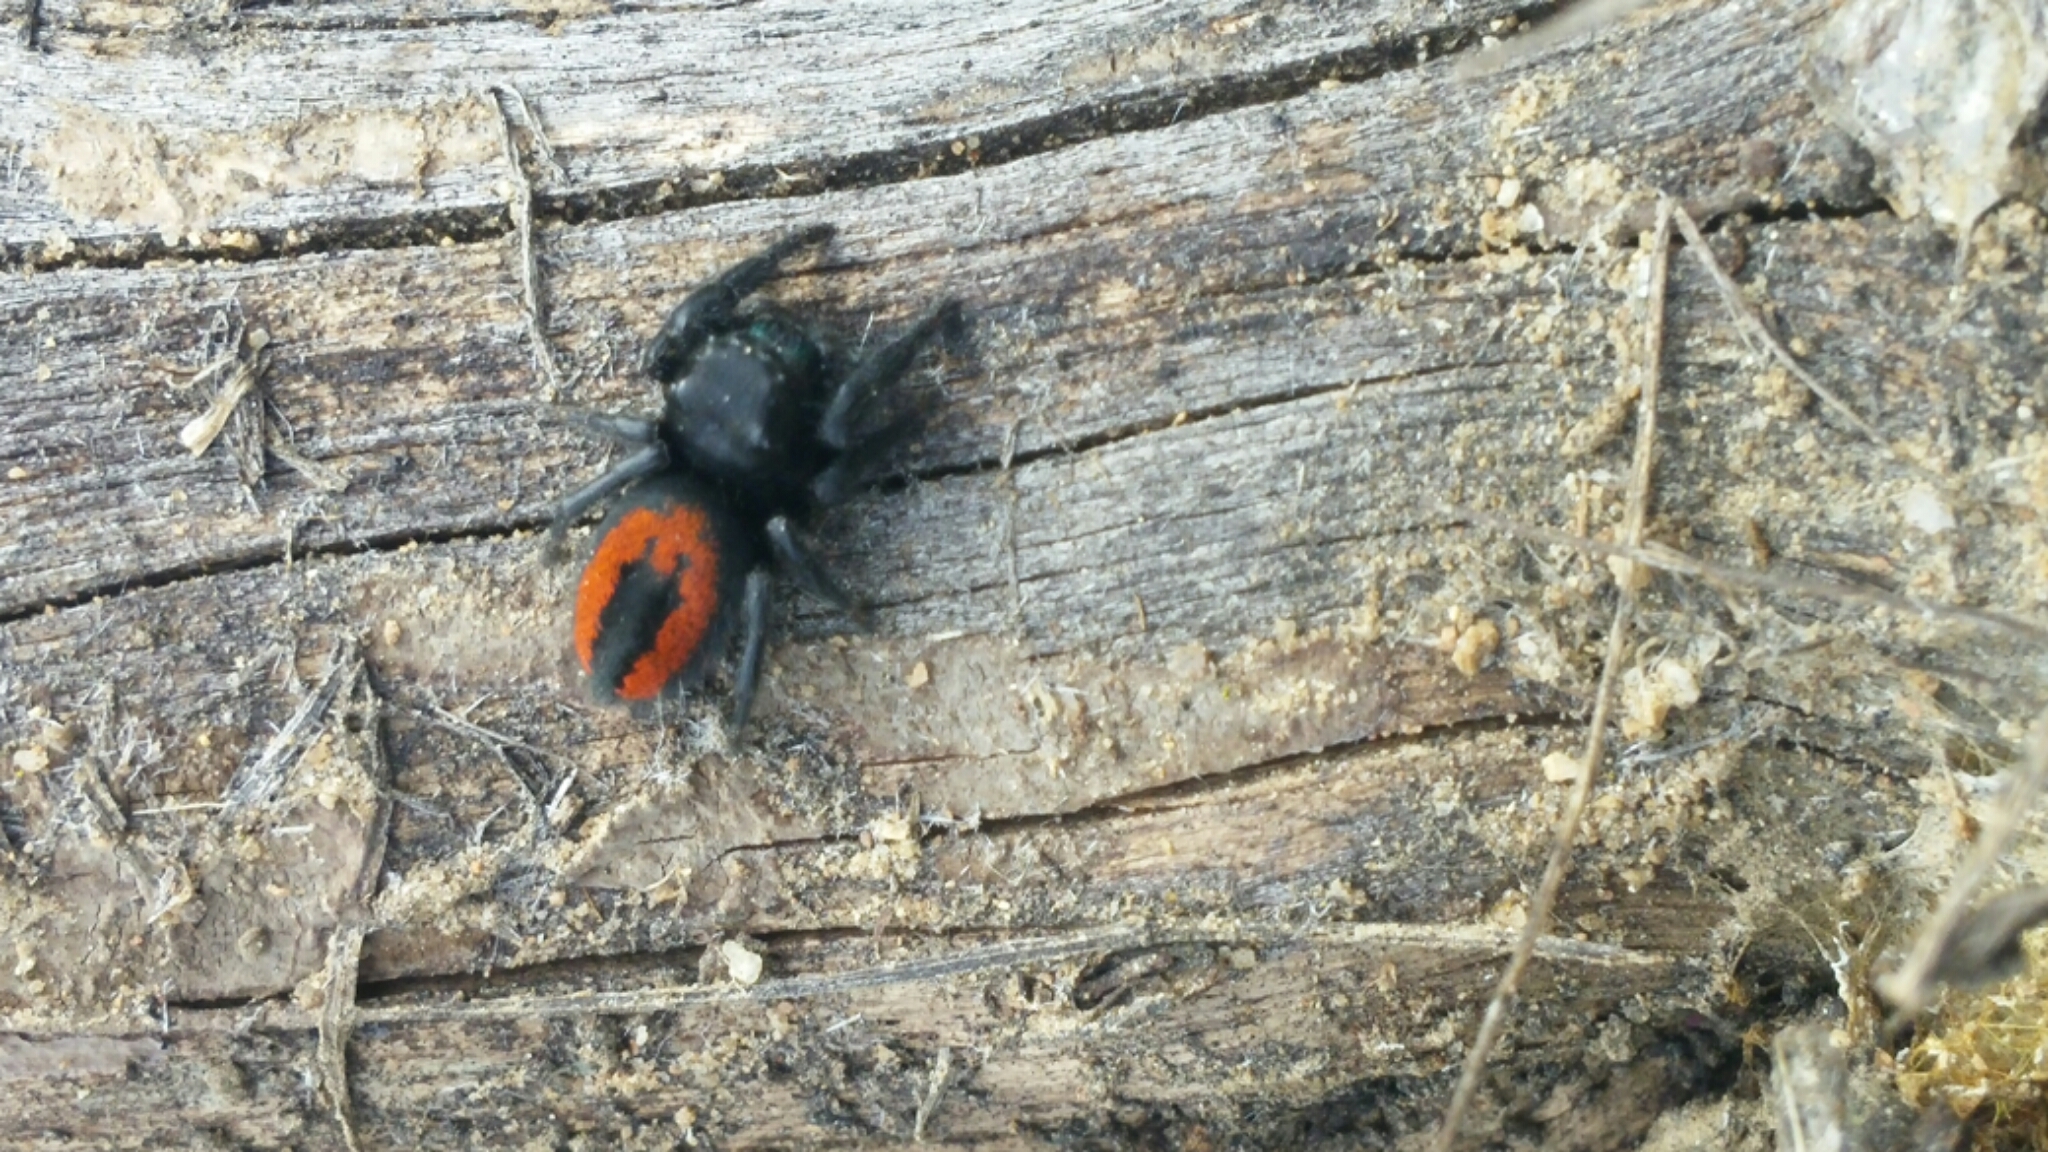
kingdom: Animalia
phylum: Arthropoda
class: Arachnida
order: Araneae
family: Salticidae
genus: Phidippus
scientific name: Phidippus johnsoni
